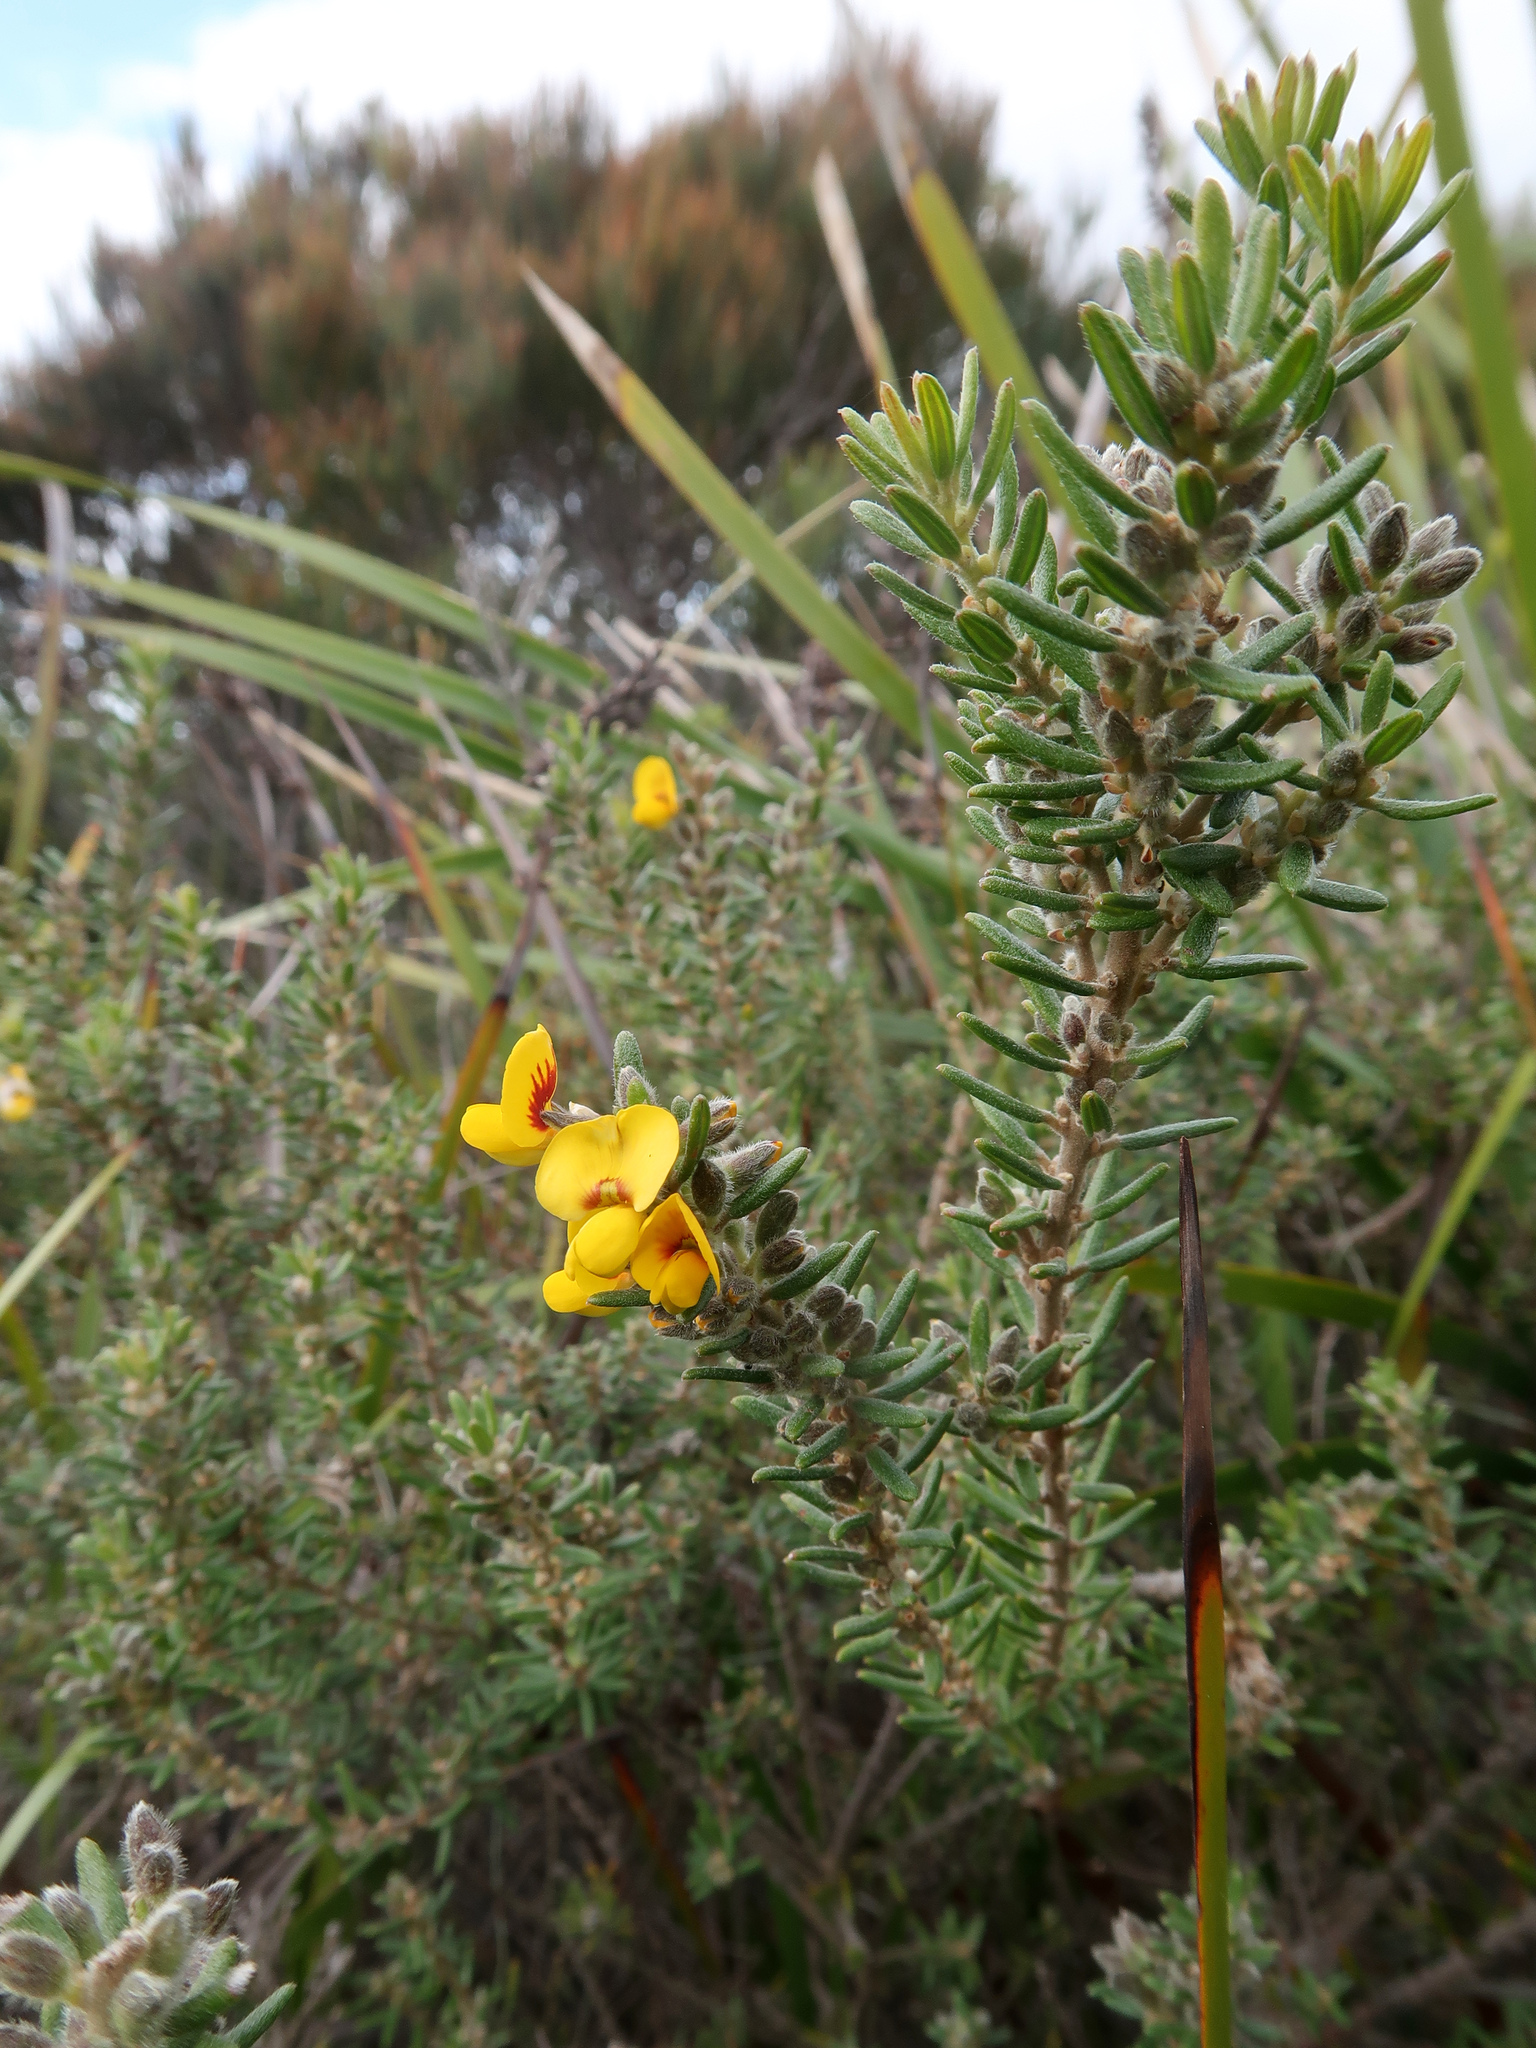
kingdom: Plantae
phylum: Tracheophyta
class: Magnoliopsida
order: Fabales
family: Fabaceae
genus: Aotus
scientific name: Aotus ericoides
